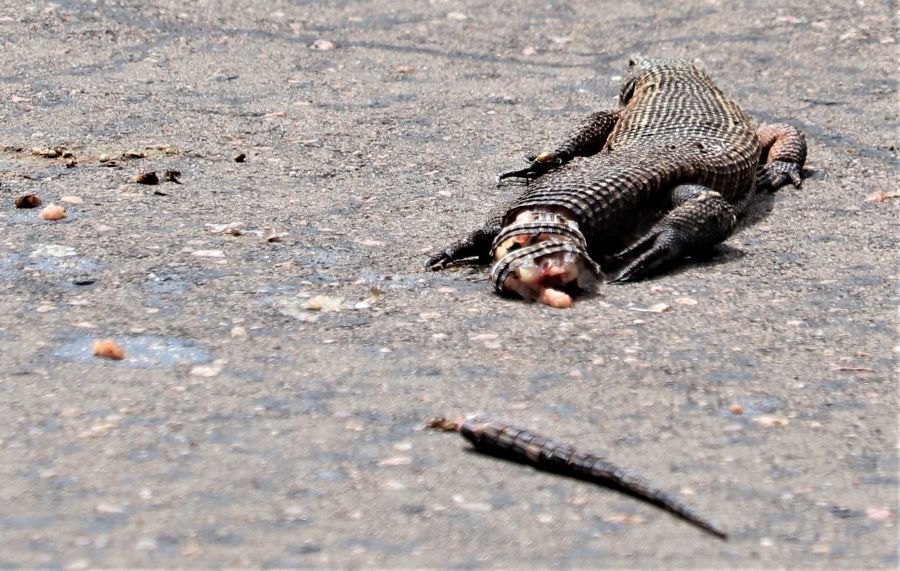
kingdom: Animalia
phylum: Chordata
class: Squamata
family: Gerrhosauridae
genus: Matobosaurus
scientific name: Matobosaurus validus
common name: Common giant plated lizard
